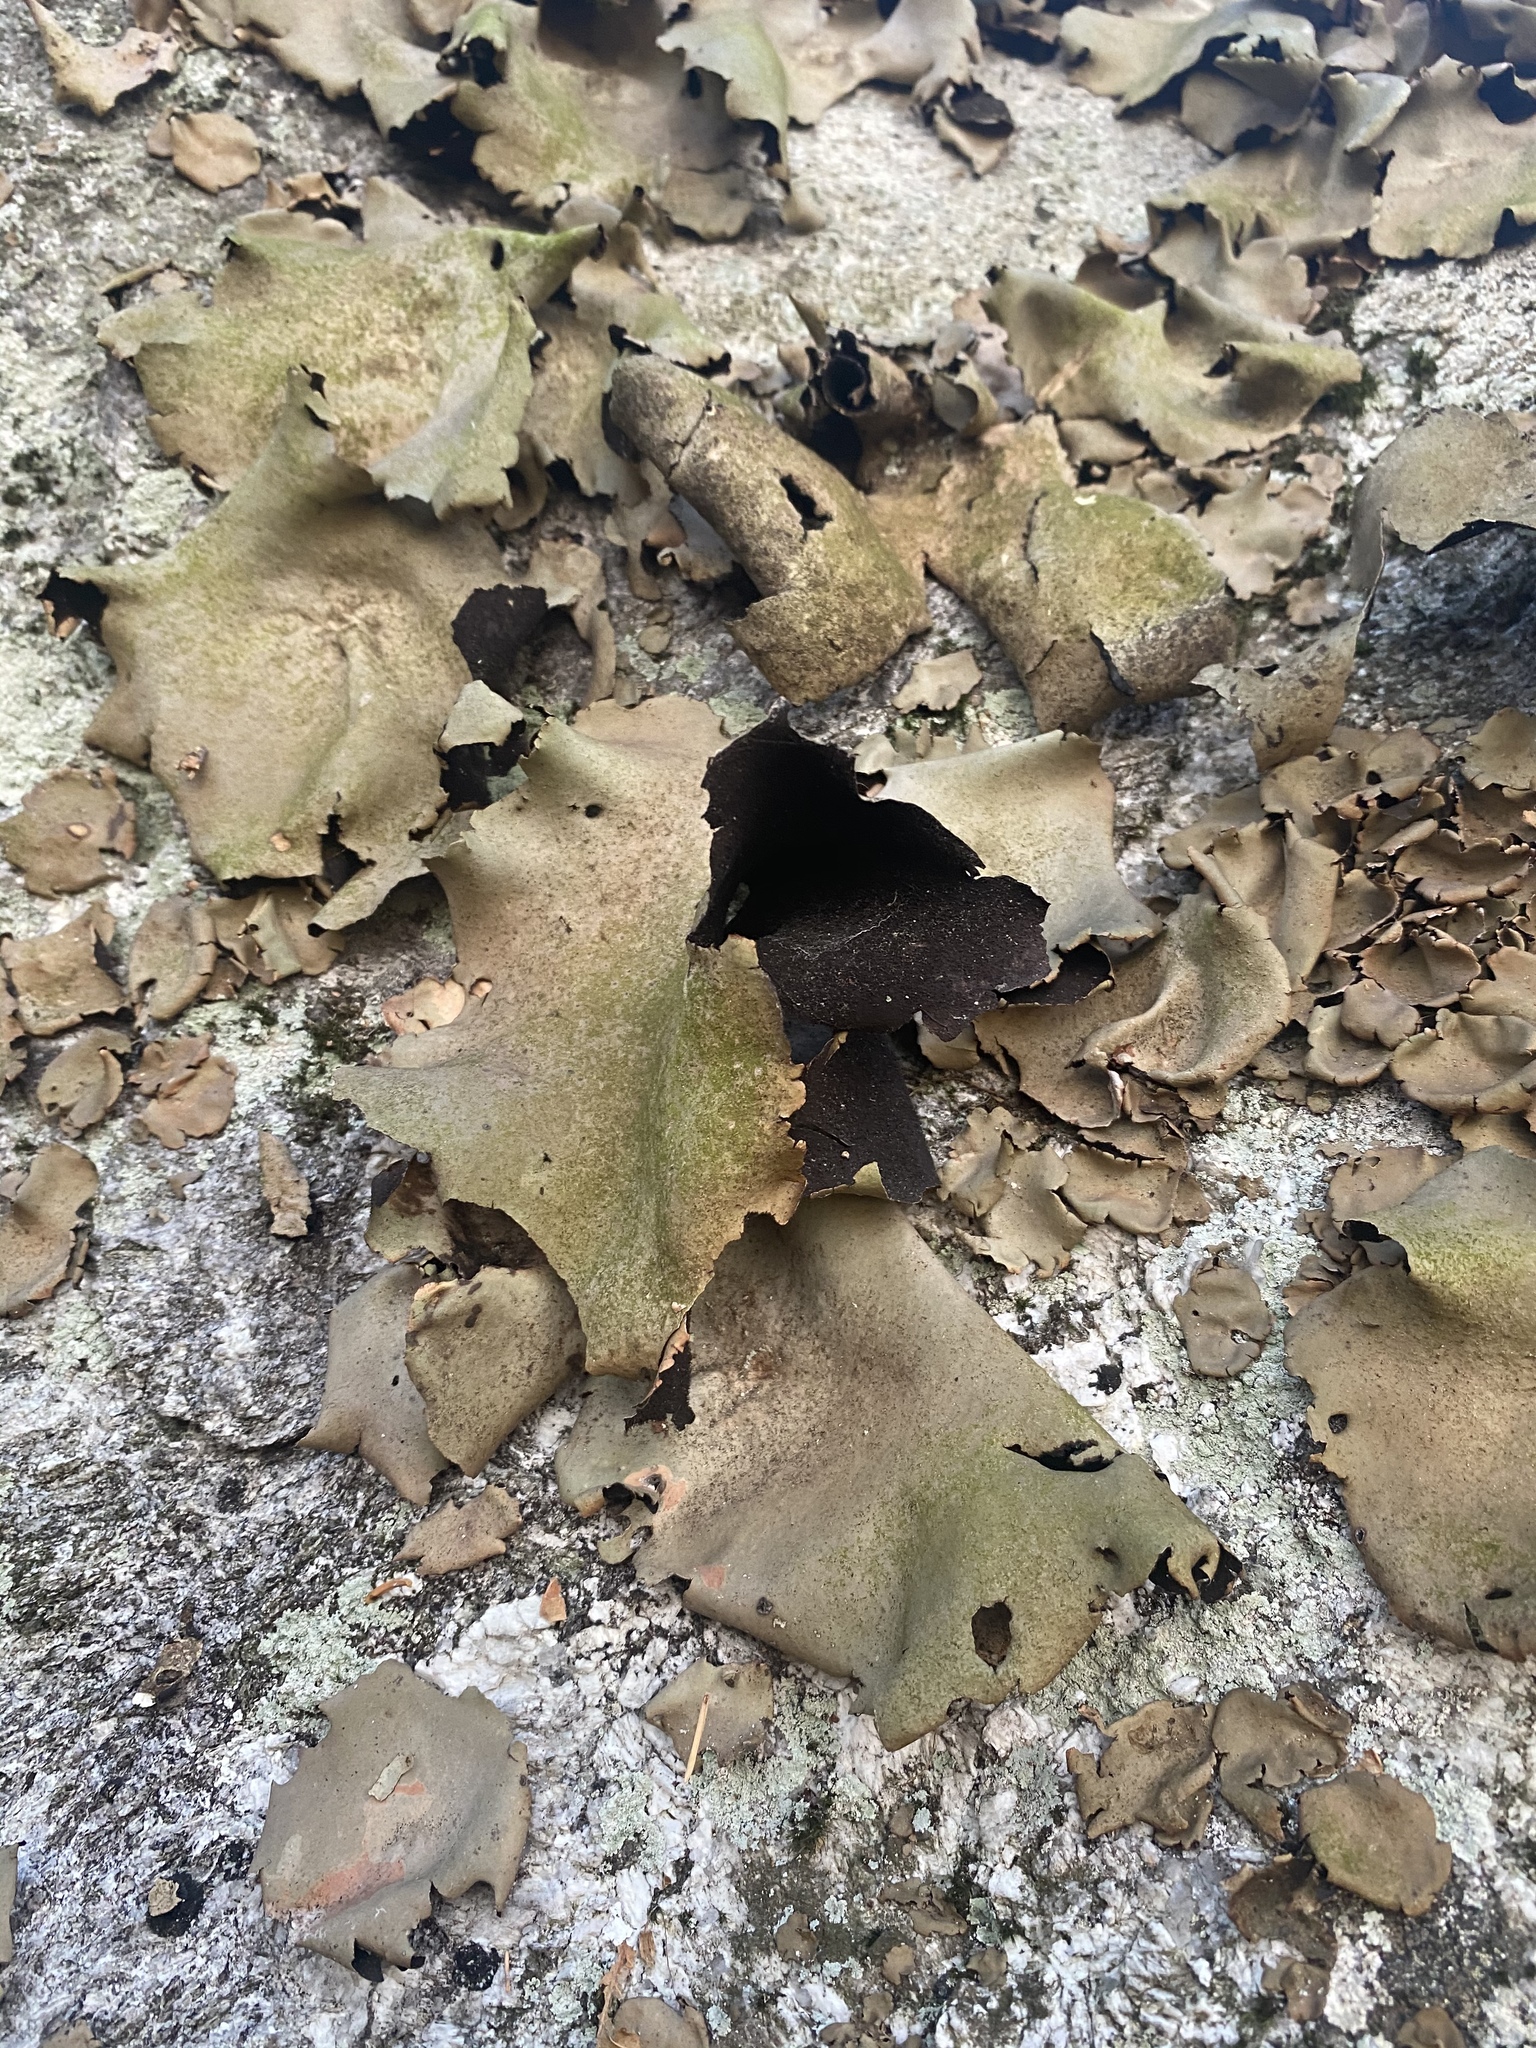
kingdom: Fungi
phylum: Ascomycota
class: Lecanoromycetes
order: Umbilicariales
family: Umbilicariaceae
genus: Umbilicaria
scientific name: Umbilicaria mammulata
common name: Smooth rock tripe
